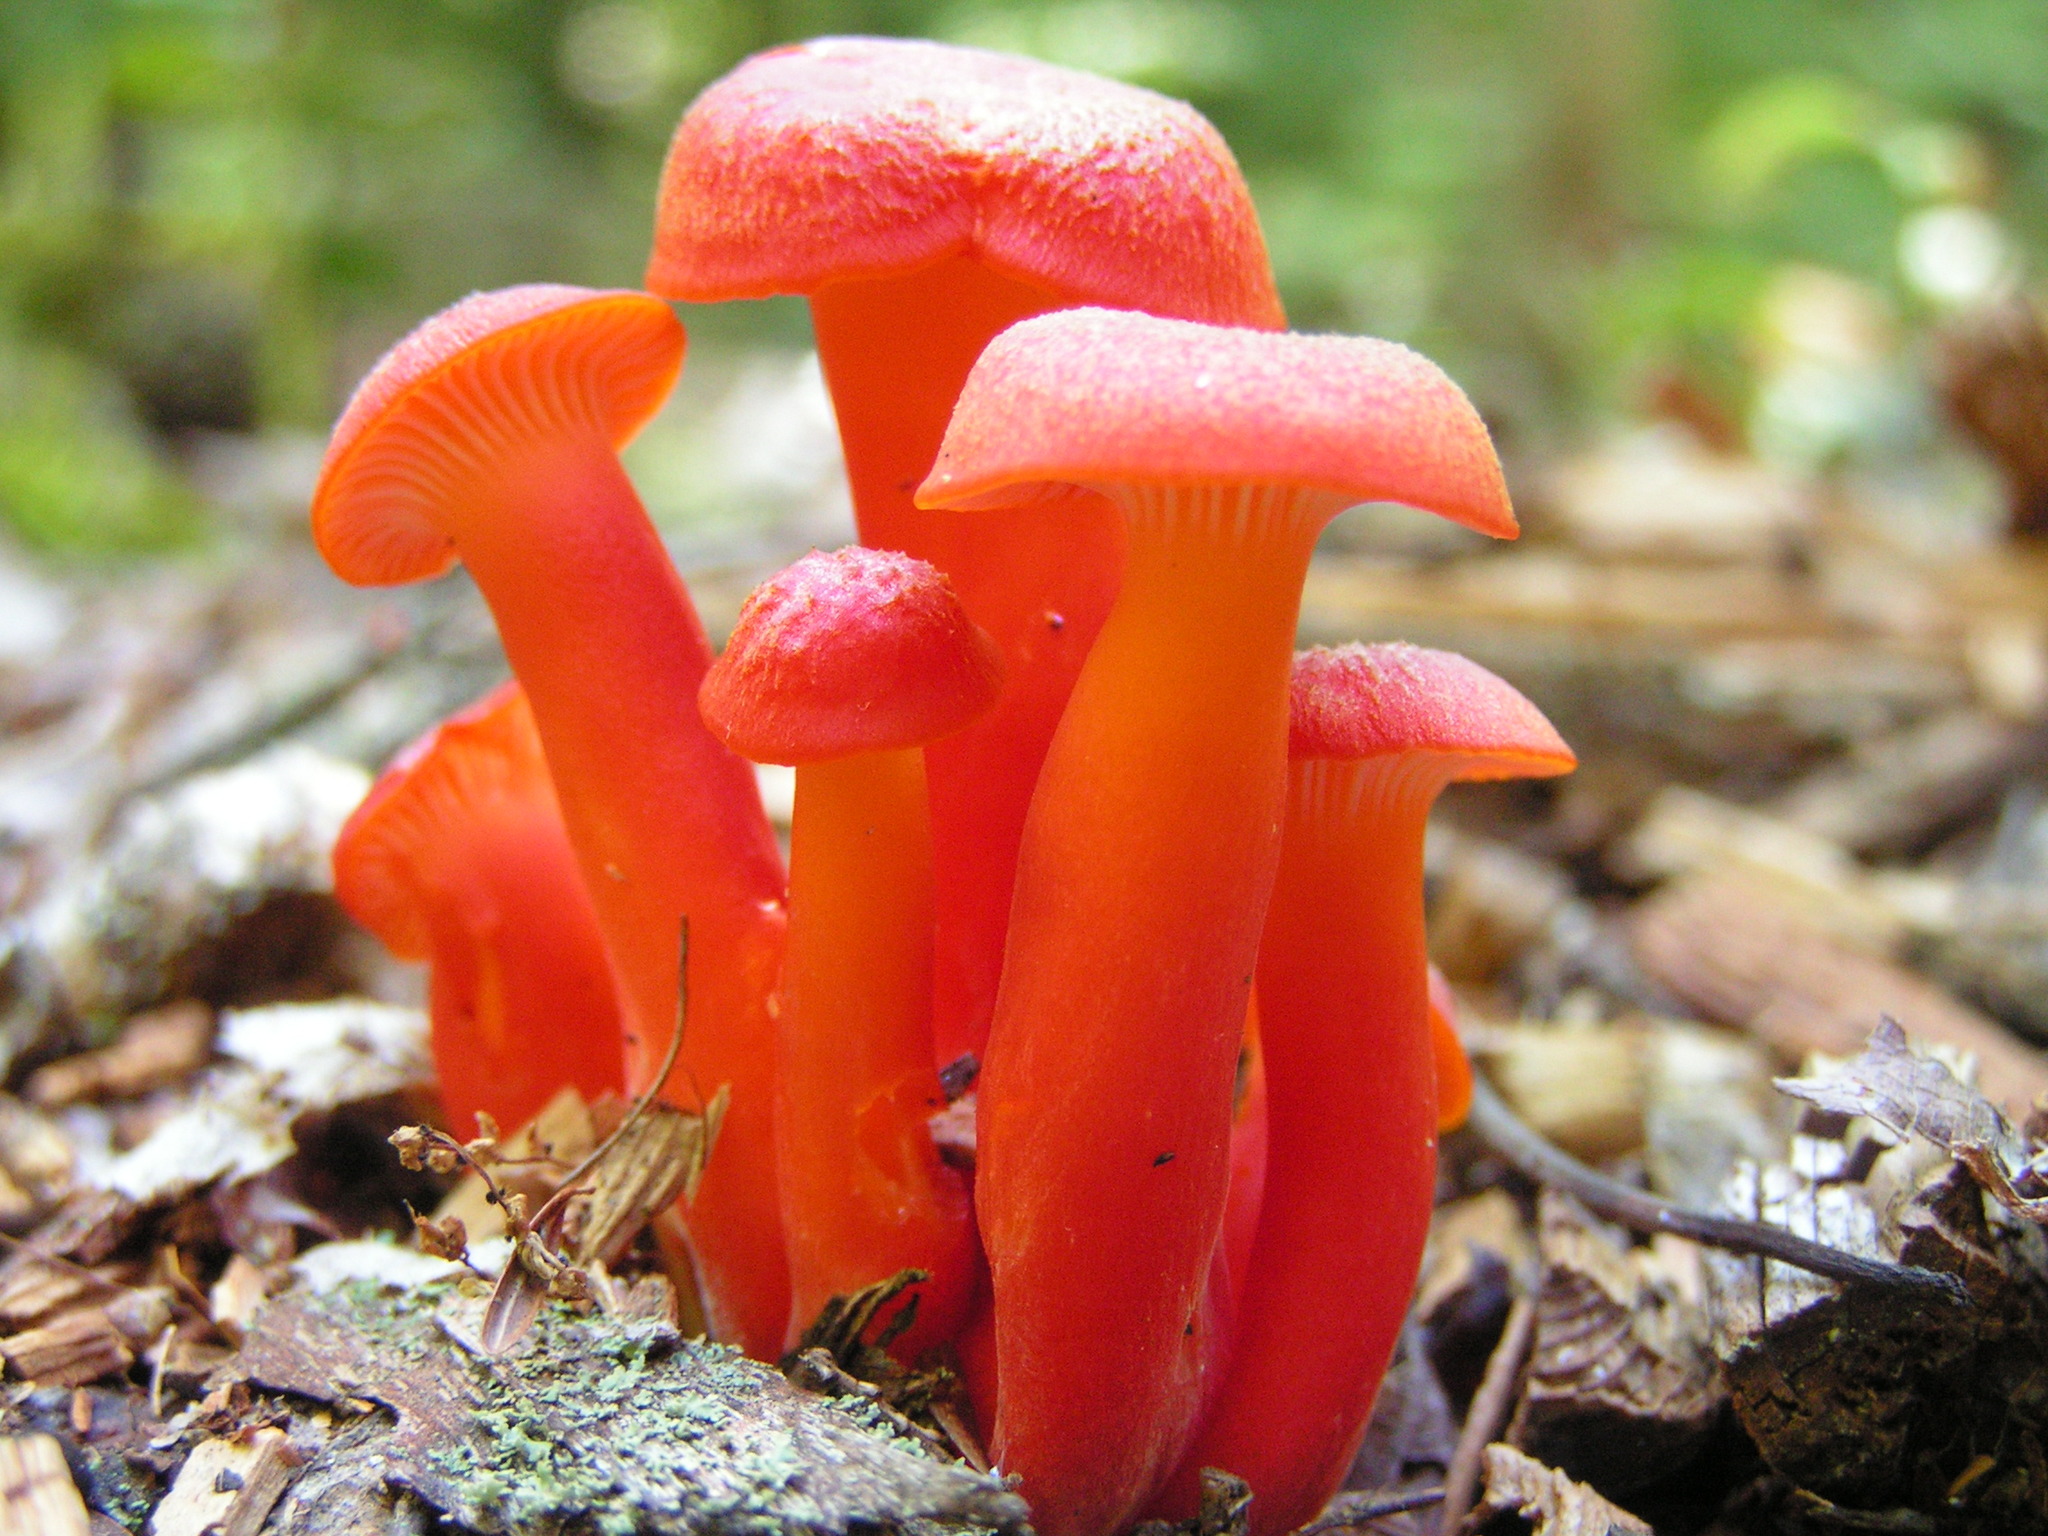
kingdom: Fungi
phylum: Basidiomycota
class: Agaricomycetes
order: Agaricales
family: Hygrophoraceae
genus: Hygrocybe
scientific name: Hygrocybe miniata
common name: Vermilion waxcap
